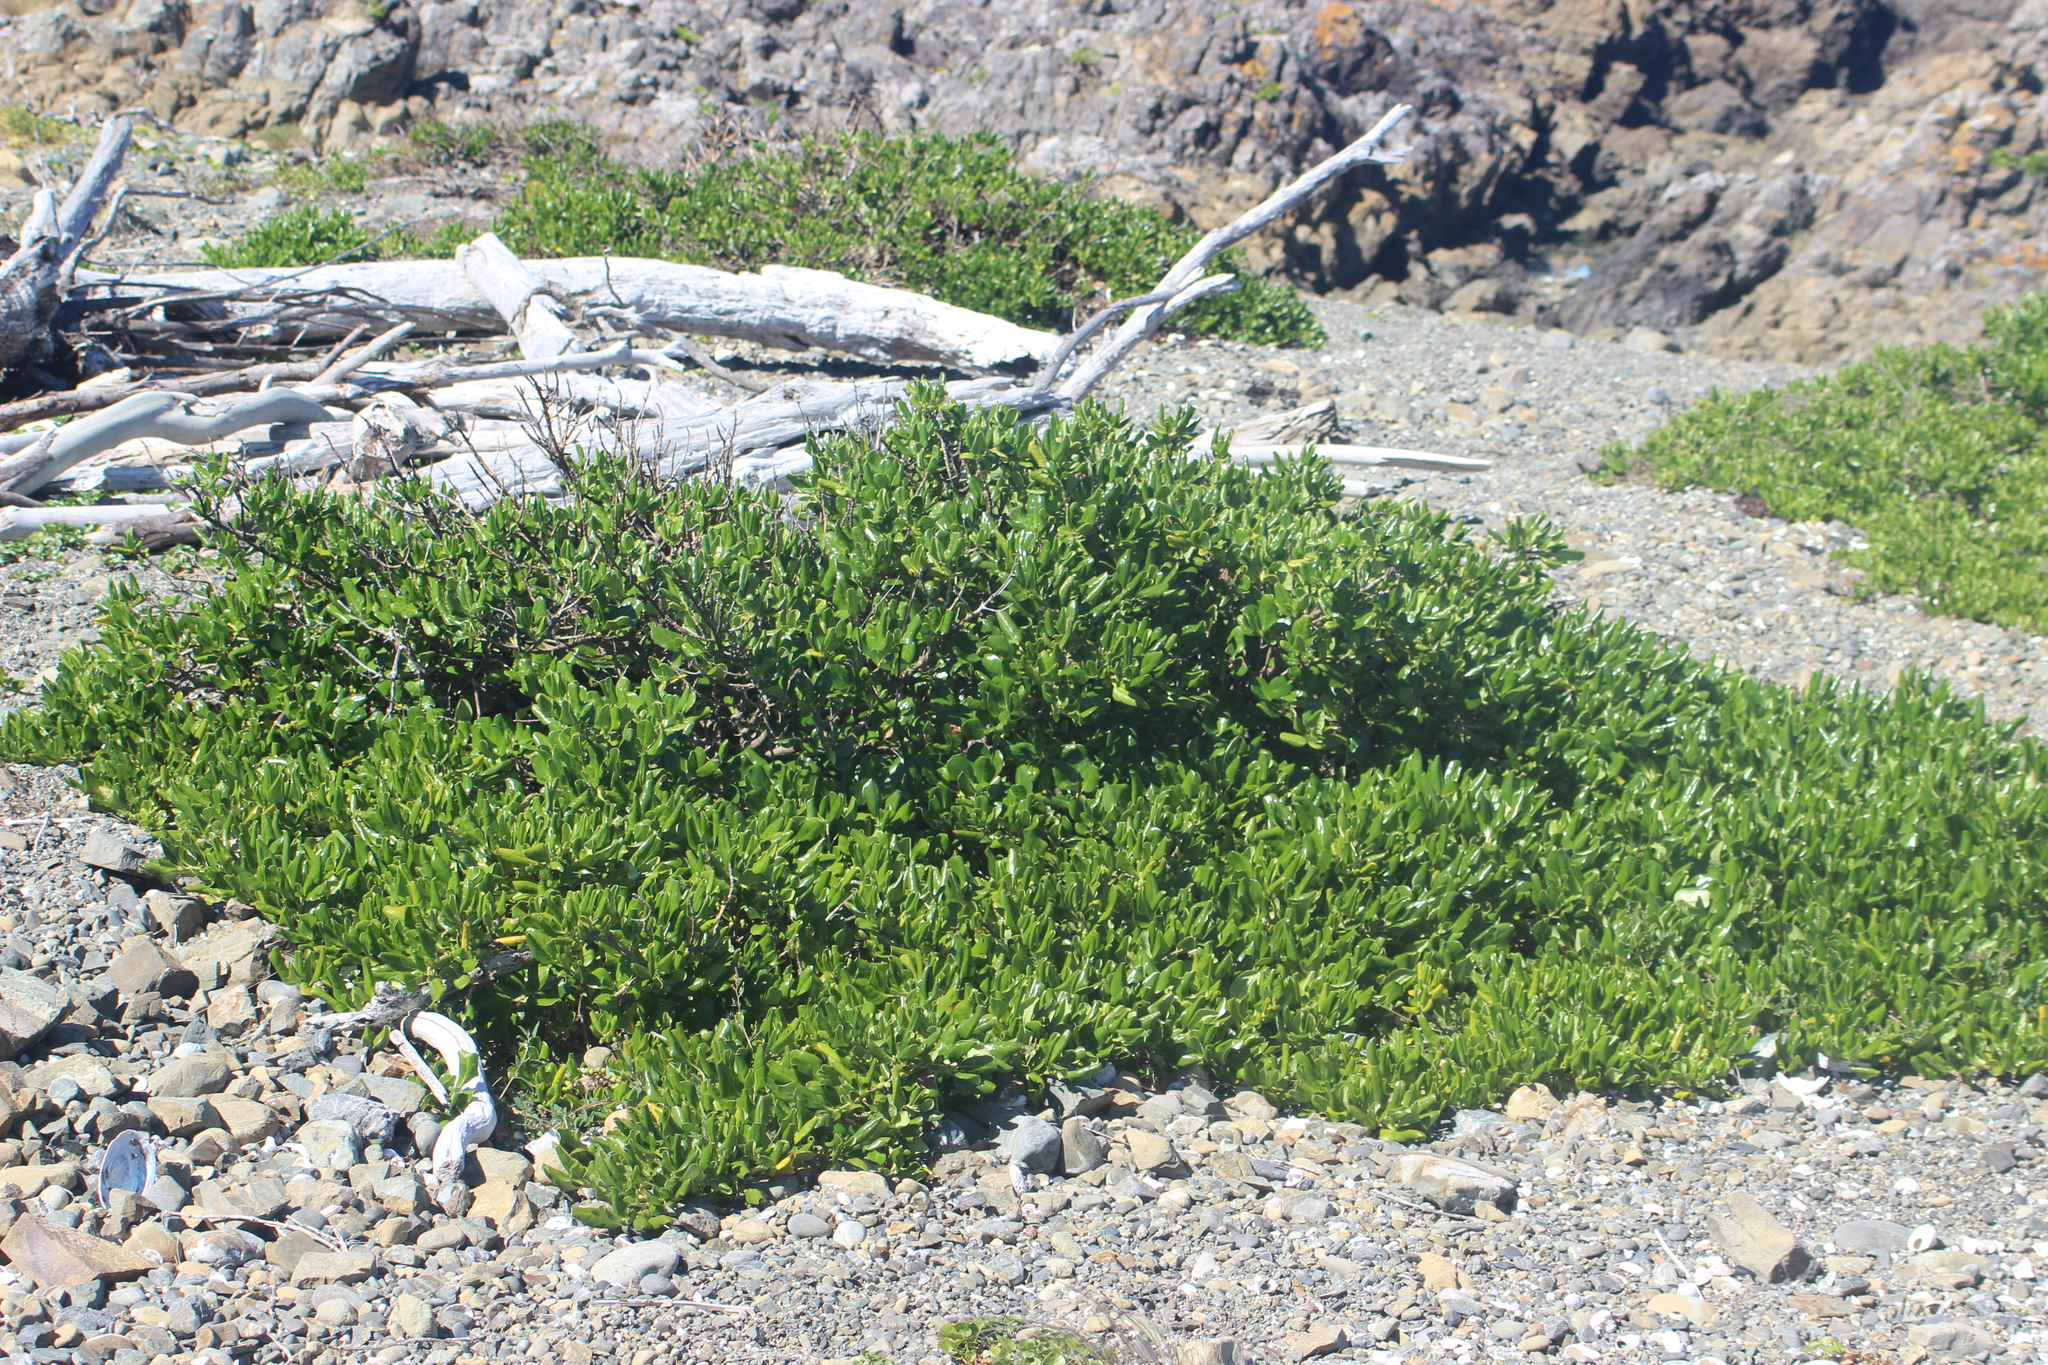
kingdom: Plantae
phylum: Tracheophyta
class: Magnoliopsida
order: Gentianales
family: Rubiaceae
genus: Coprosma
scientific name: Coprosma repens
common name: Tree bedstraw
